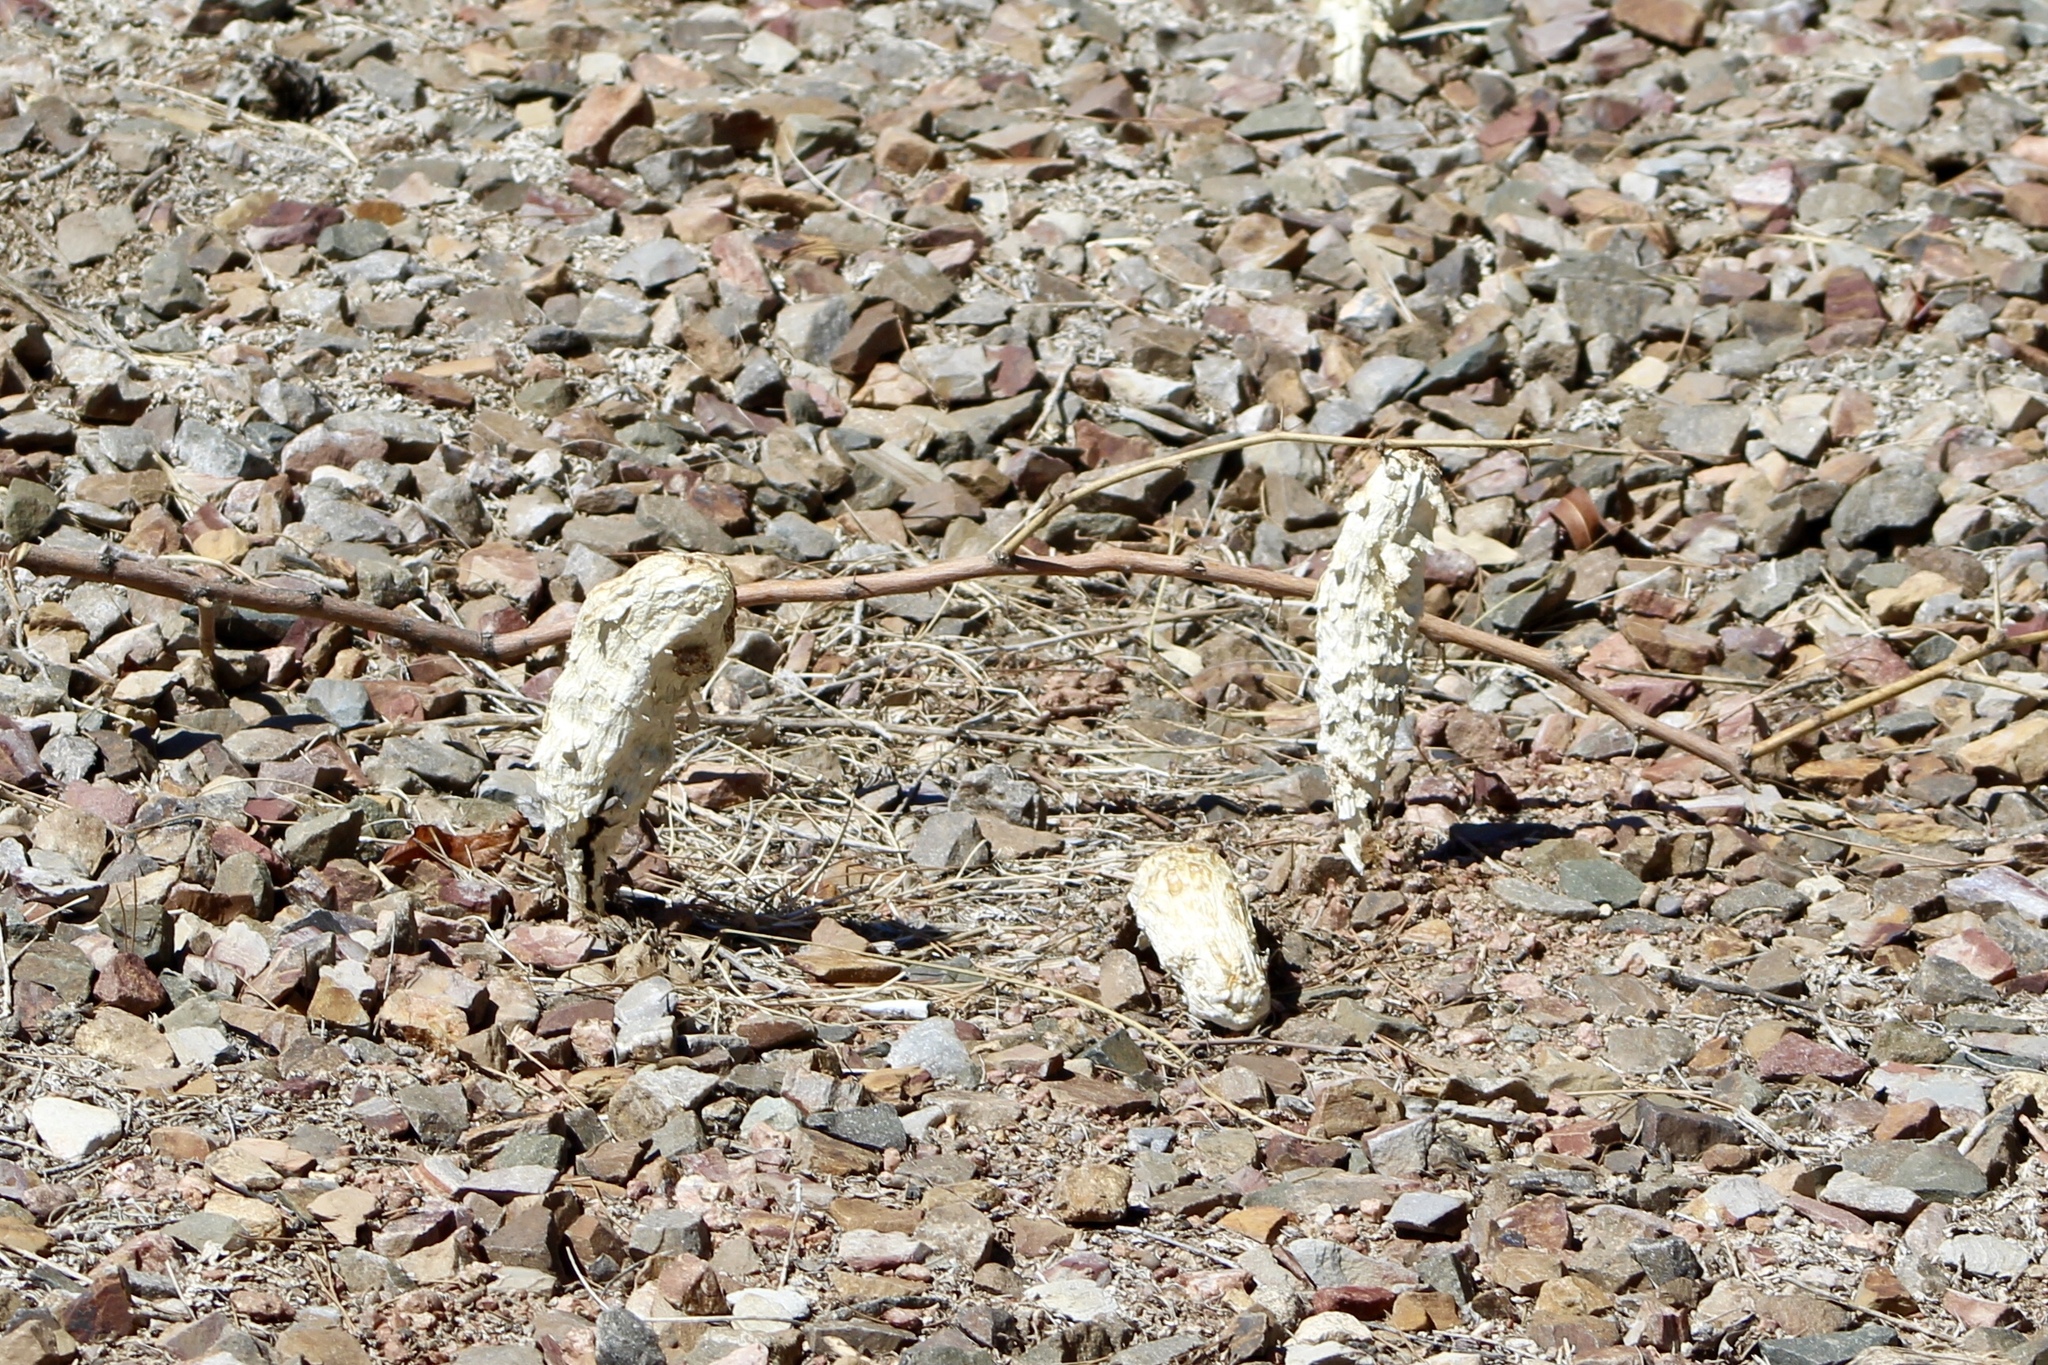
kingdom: Fungi
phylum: Basidiomycota
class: Agaricomycetes
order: Agaricales
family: Agaricaceae
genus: Podaxis
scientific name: Podaxis pistillaris
